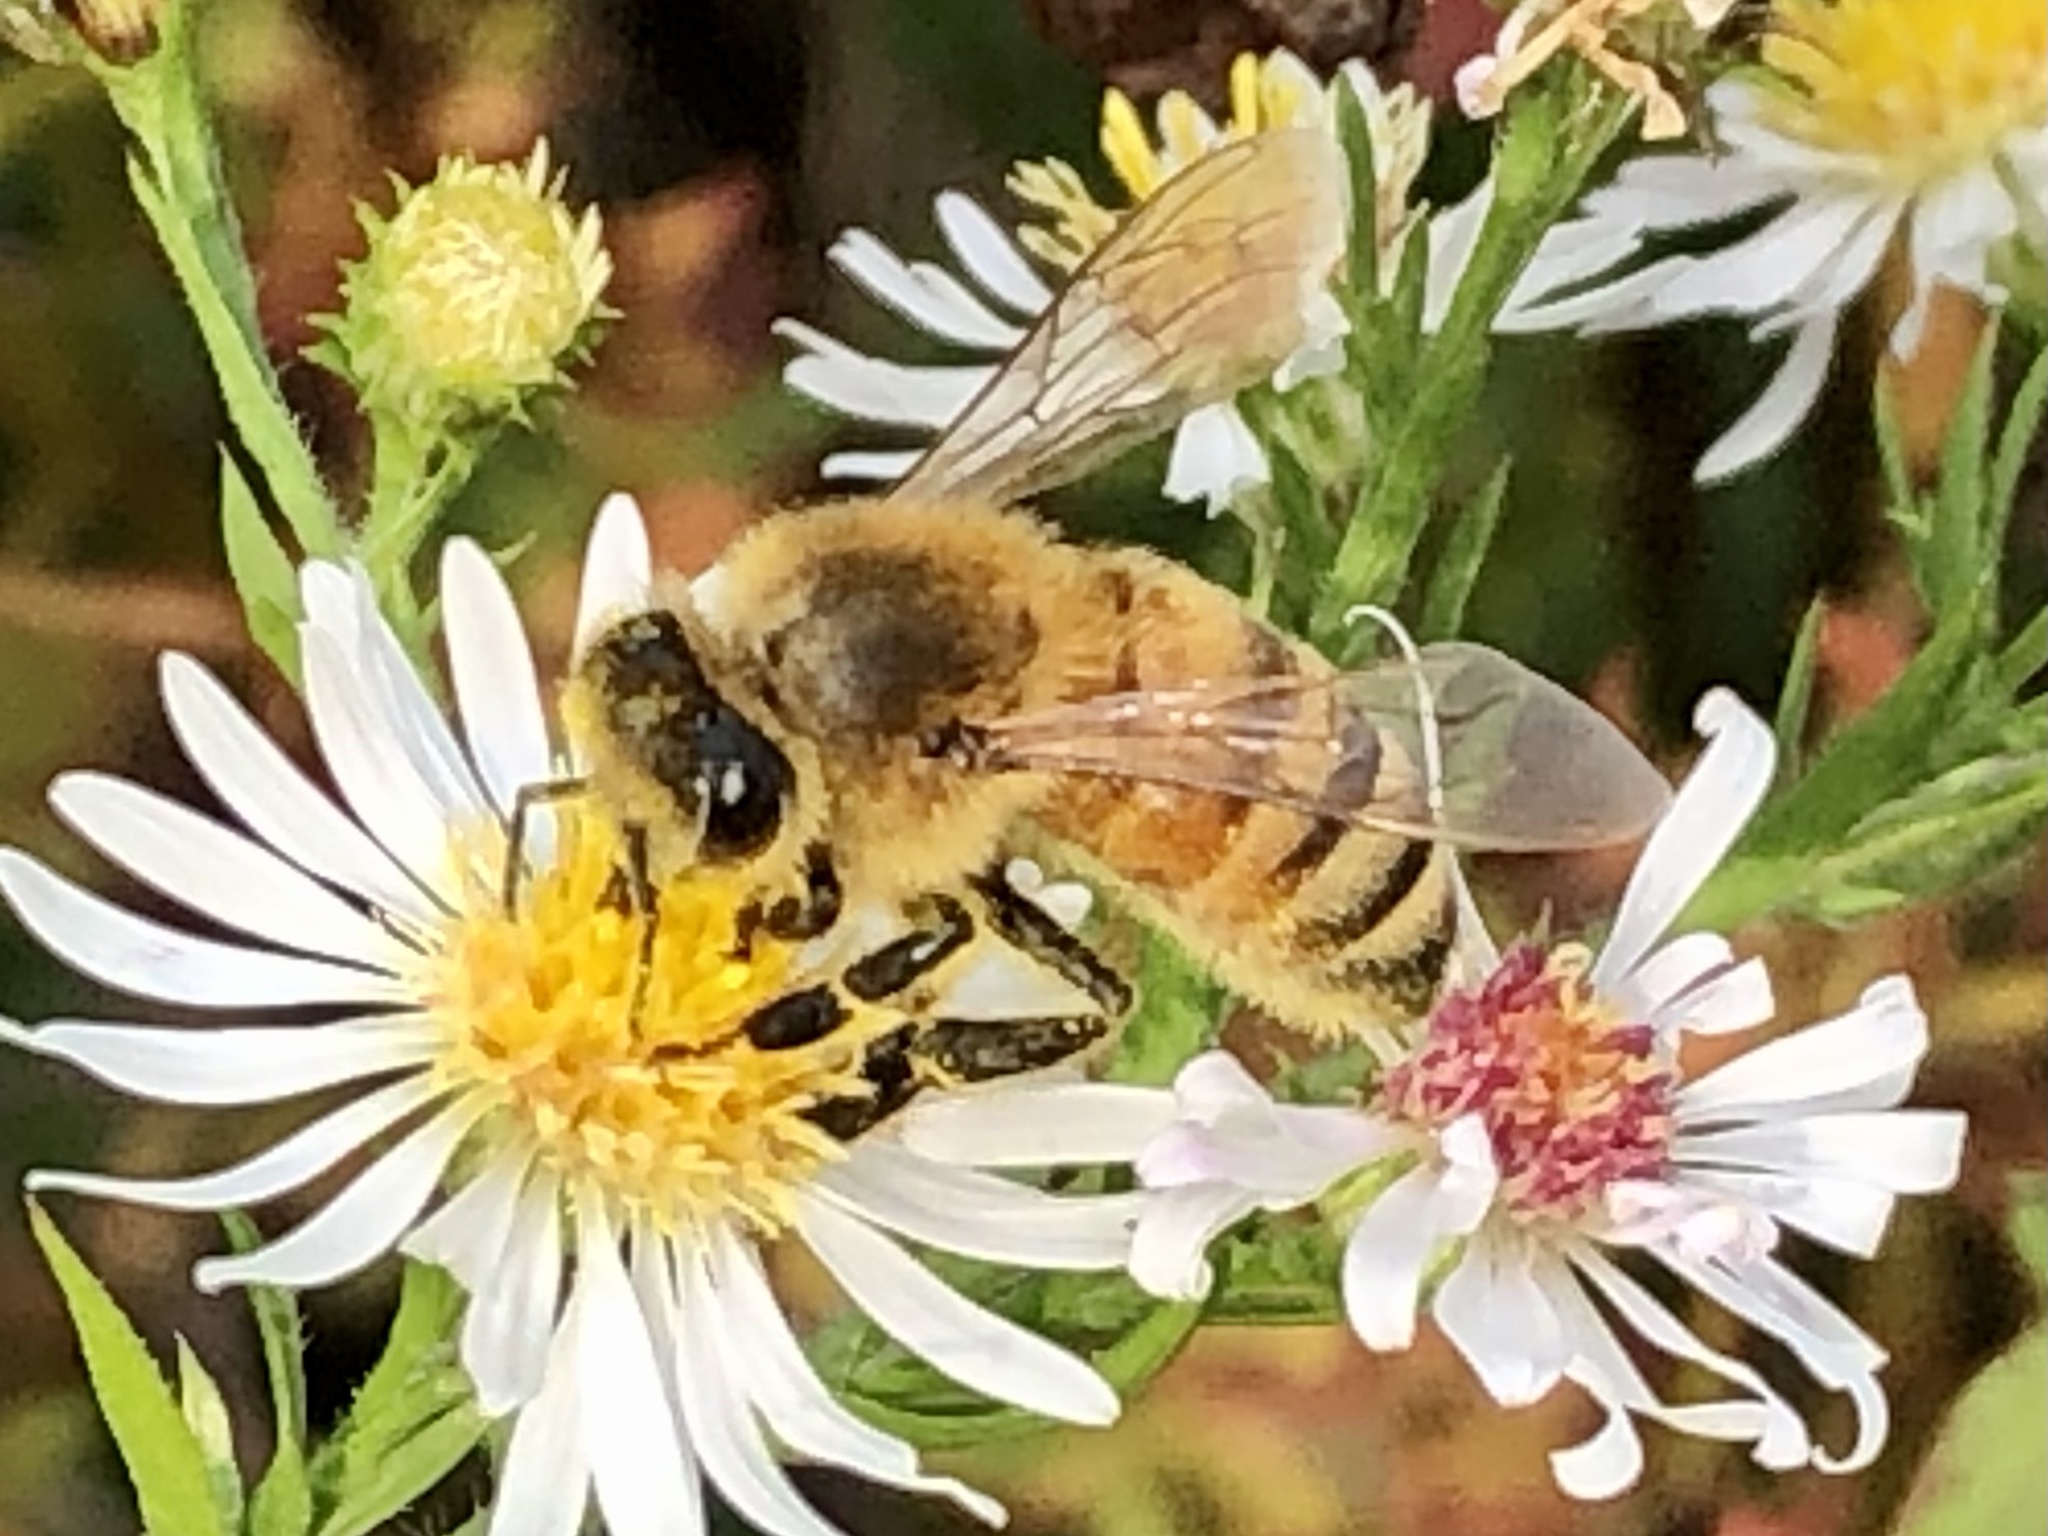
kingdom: Animalia
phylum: Arthropoda
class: Insecta
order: Hymenoptera
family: Apidae
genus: Apis
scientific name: Apis mellifera
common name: Honey bee
